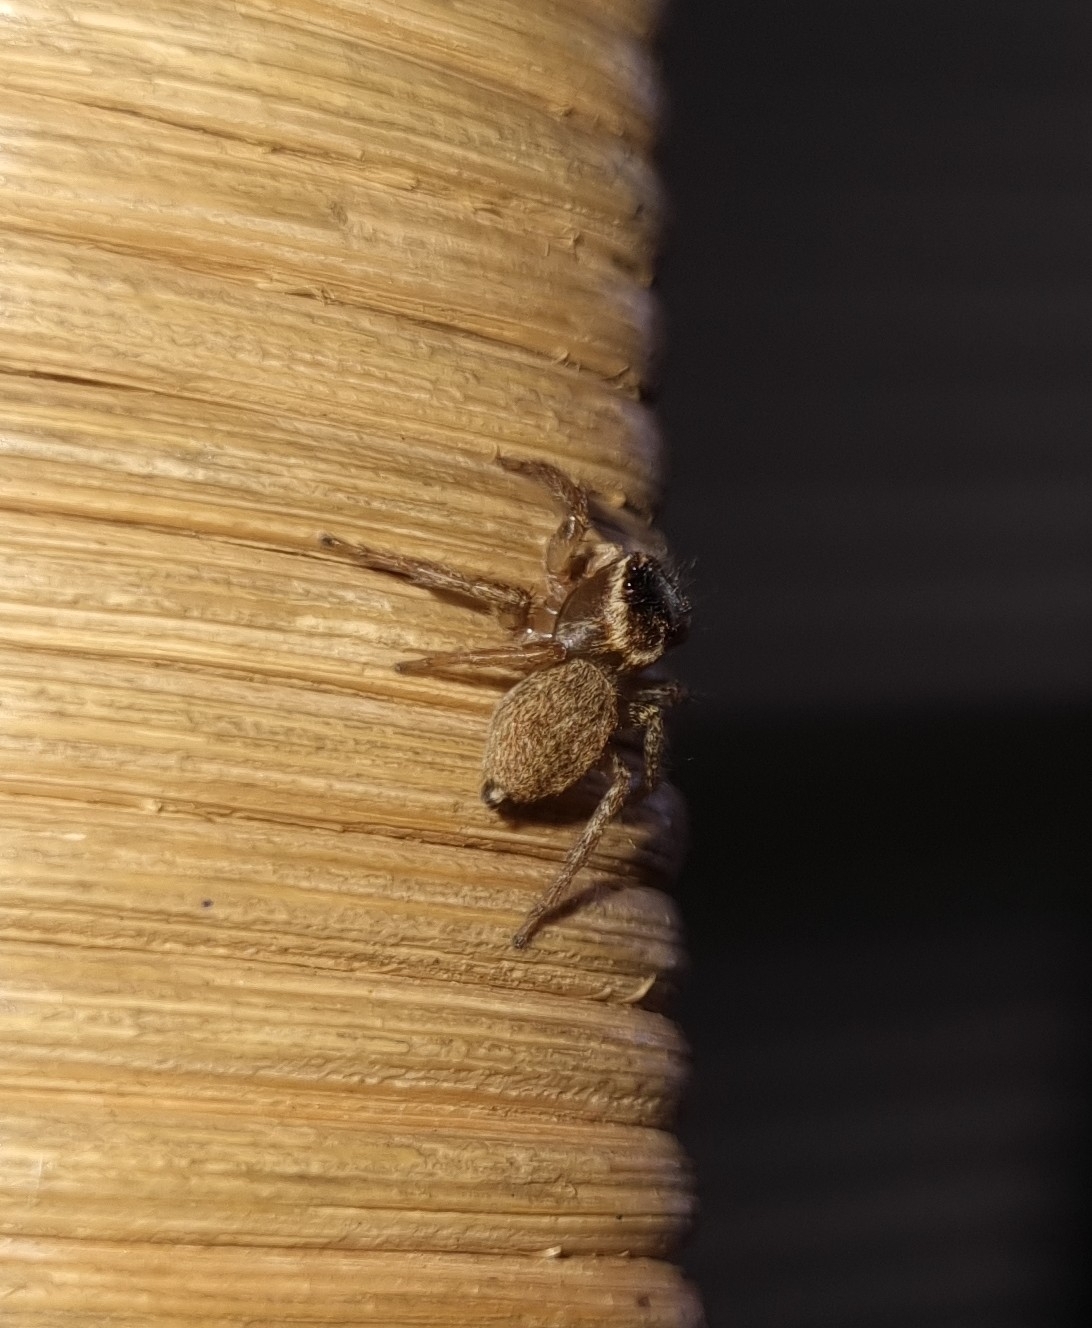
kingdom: Animalia
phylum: Arthropoda
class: Arachnida
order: Araneae
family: Salticidae
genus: Maratus
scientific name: Maratus griseus
